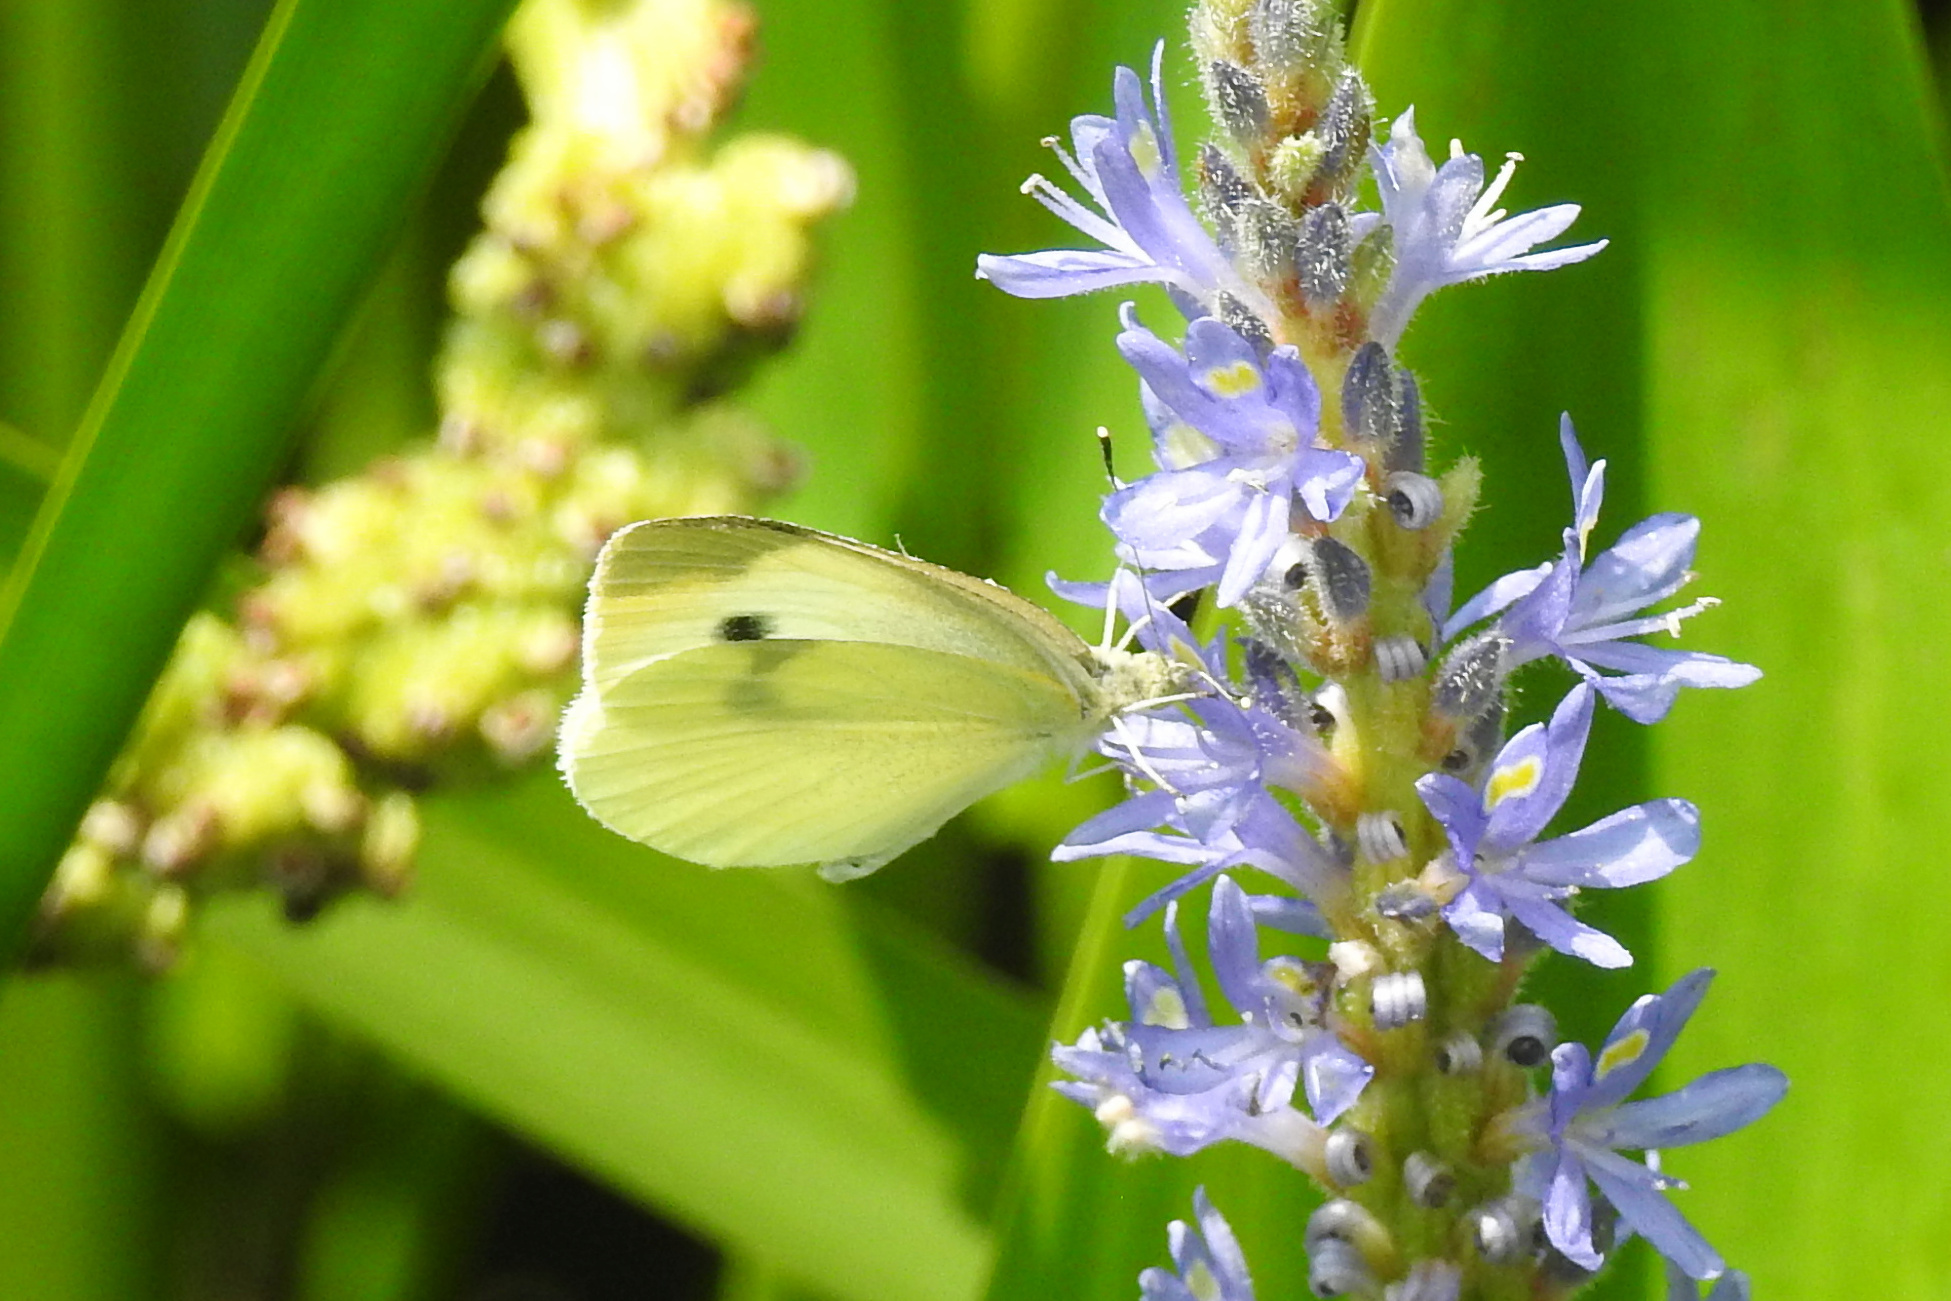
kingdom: Animalia
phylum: Arthropoda
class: Insecta
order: Lepidoptera
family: Pieridae
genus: Pieris
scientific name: Pieris rapae
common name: Small white
